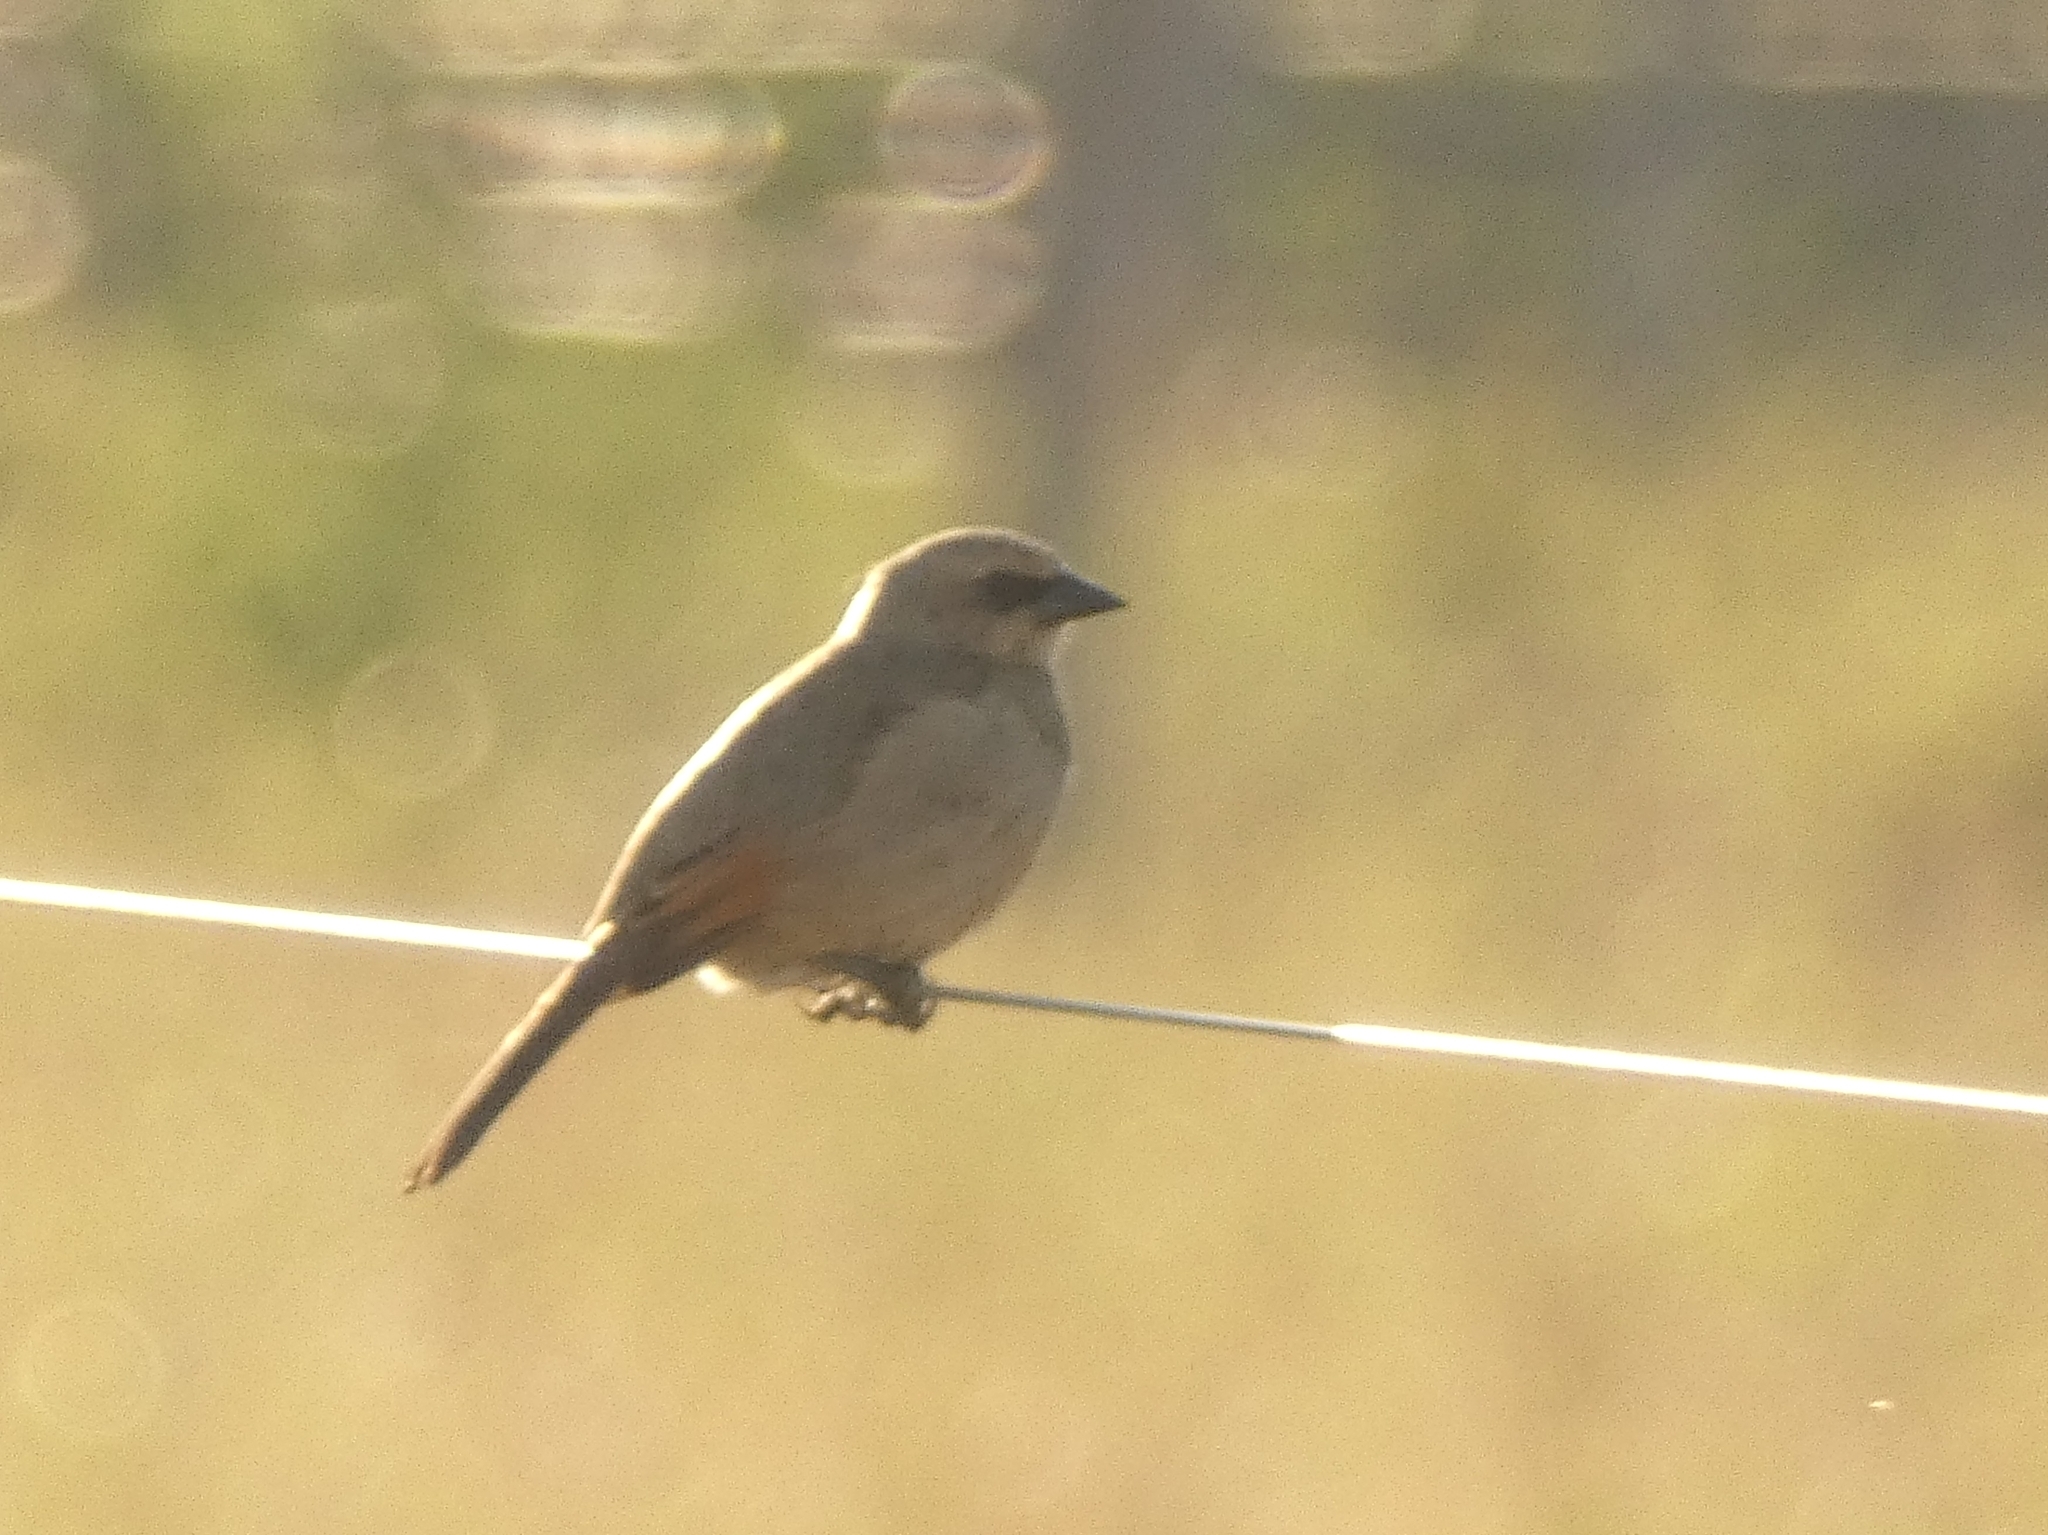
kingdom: Animalia
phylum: Chordata
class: Aves
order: Passeriformes
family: Icteridae
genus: Agelaioides
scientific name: Agelaioides badius
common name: Baywing
